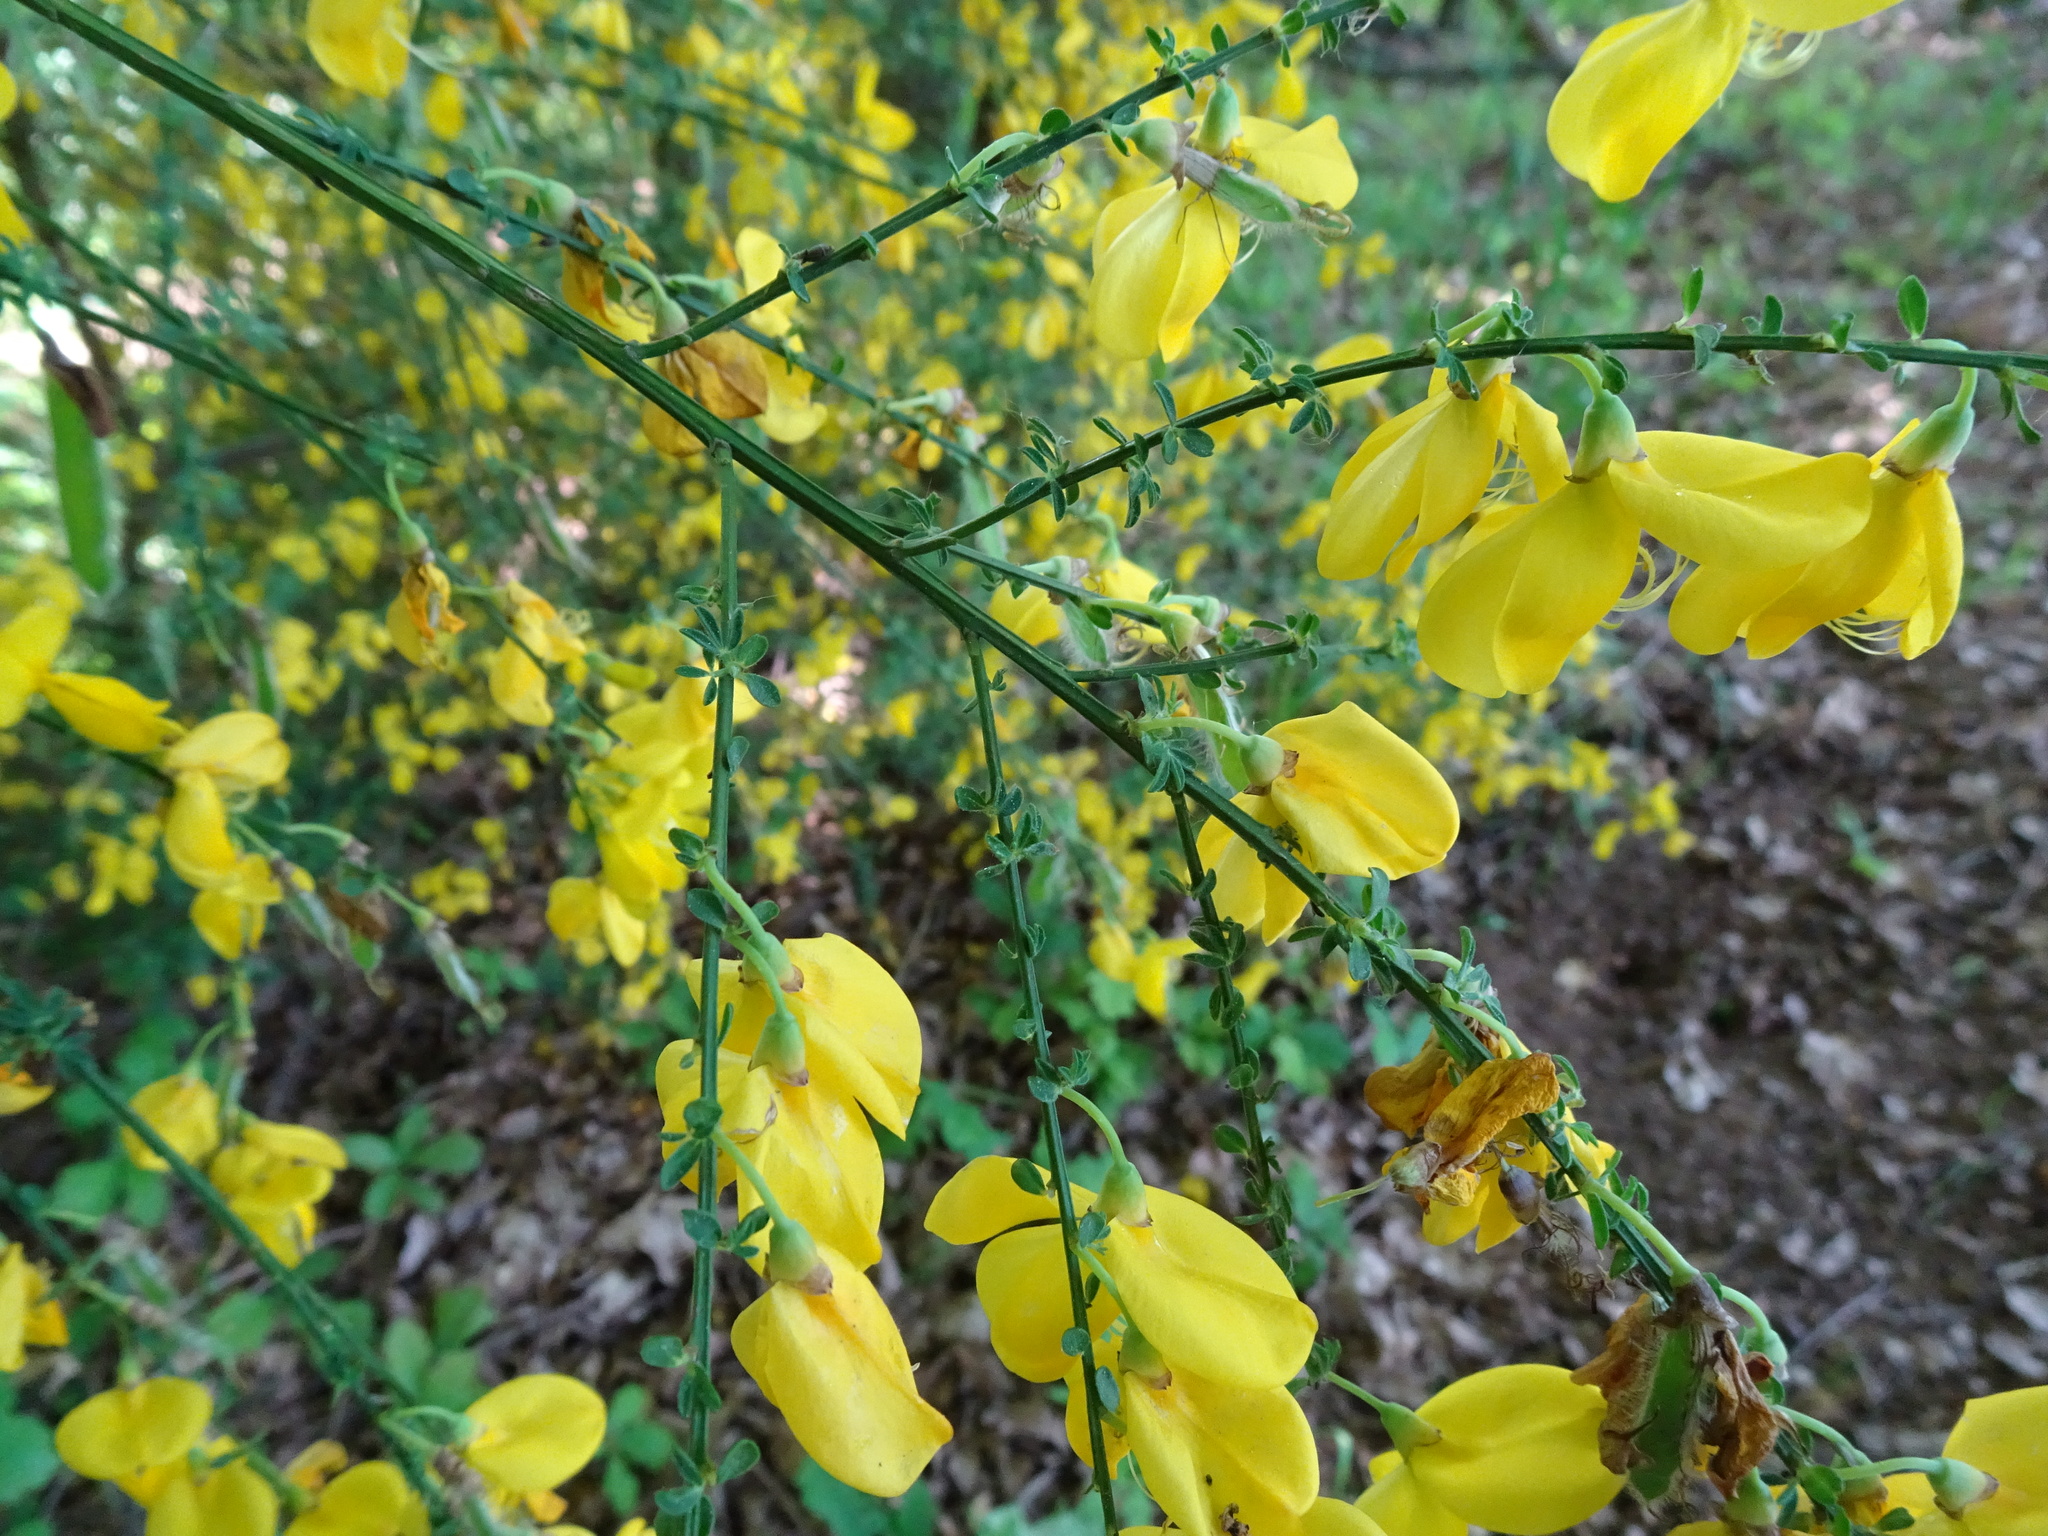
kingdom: Plantae
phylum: Tracheophyta
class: Magnoliopsida
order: Fabales
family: Fabaceae
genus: Cytisus
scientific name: Cytisus scoparius
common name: Scotch broom
